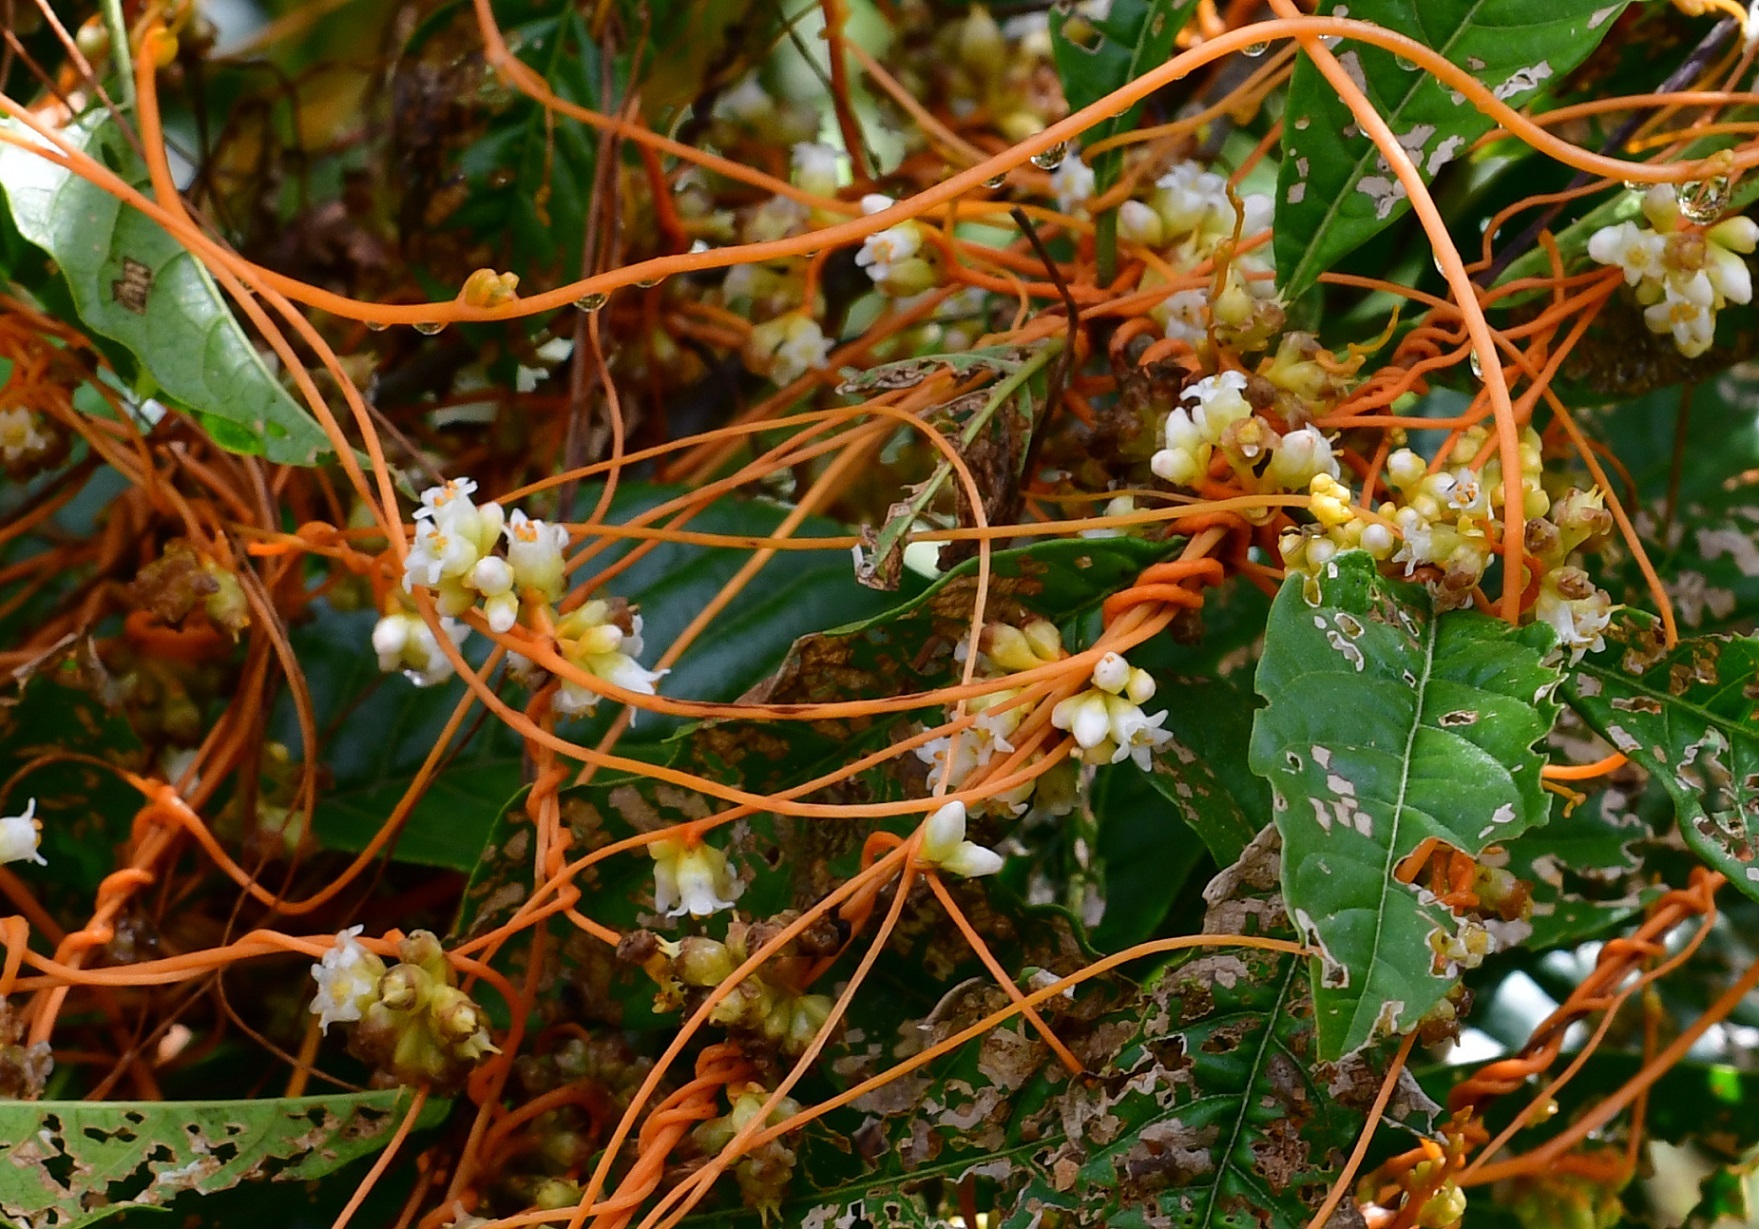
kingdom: Plantae
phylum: Tracheophyta
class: Magnoliopsida
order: Solanales
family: Convolvulaceae
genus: Cuscuta
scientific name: Cuscuta tinctoria
